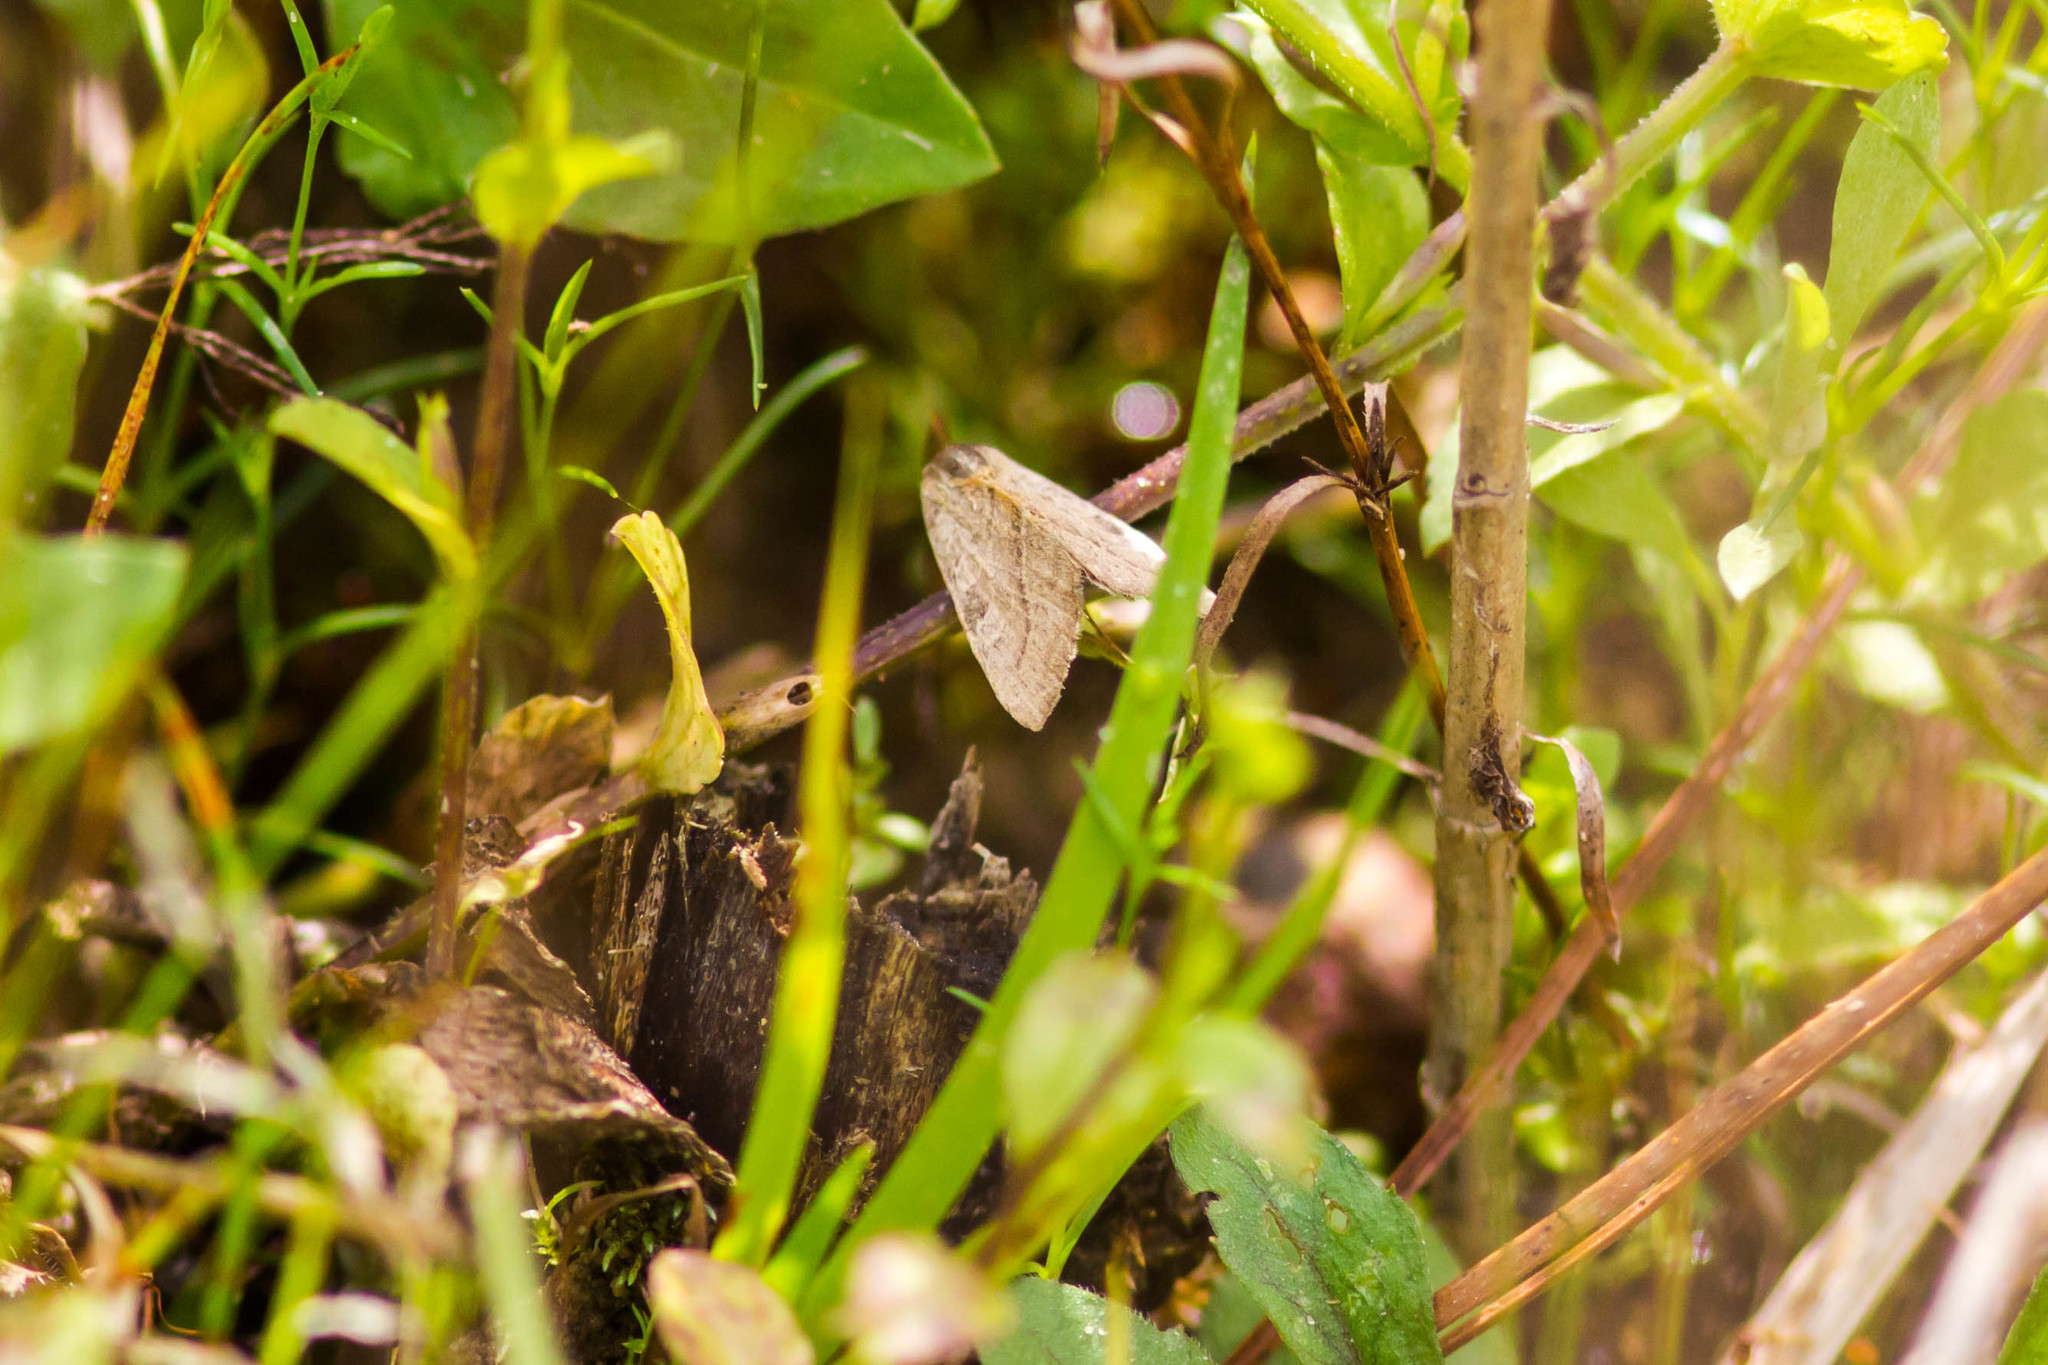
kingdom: Animalia
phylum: Arthropoda
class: Insecta
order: Lepidoptera
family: Noctuidae
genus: Galgula
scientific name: Galgula partita
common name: Wedgeling
